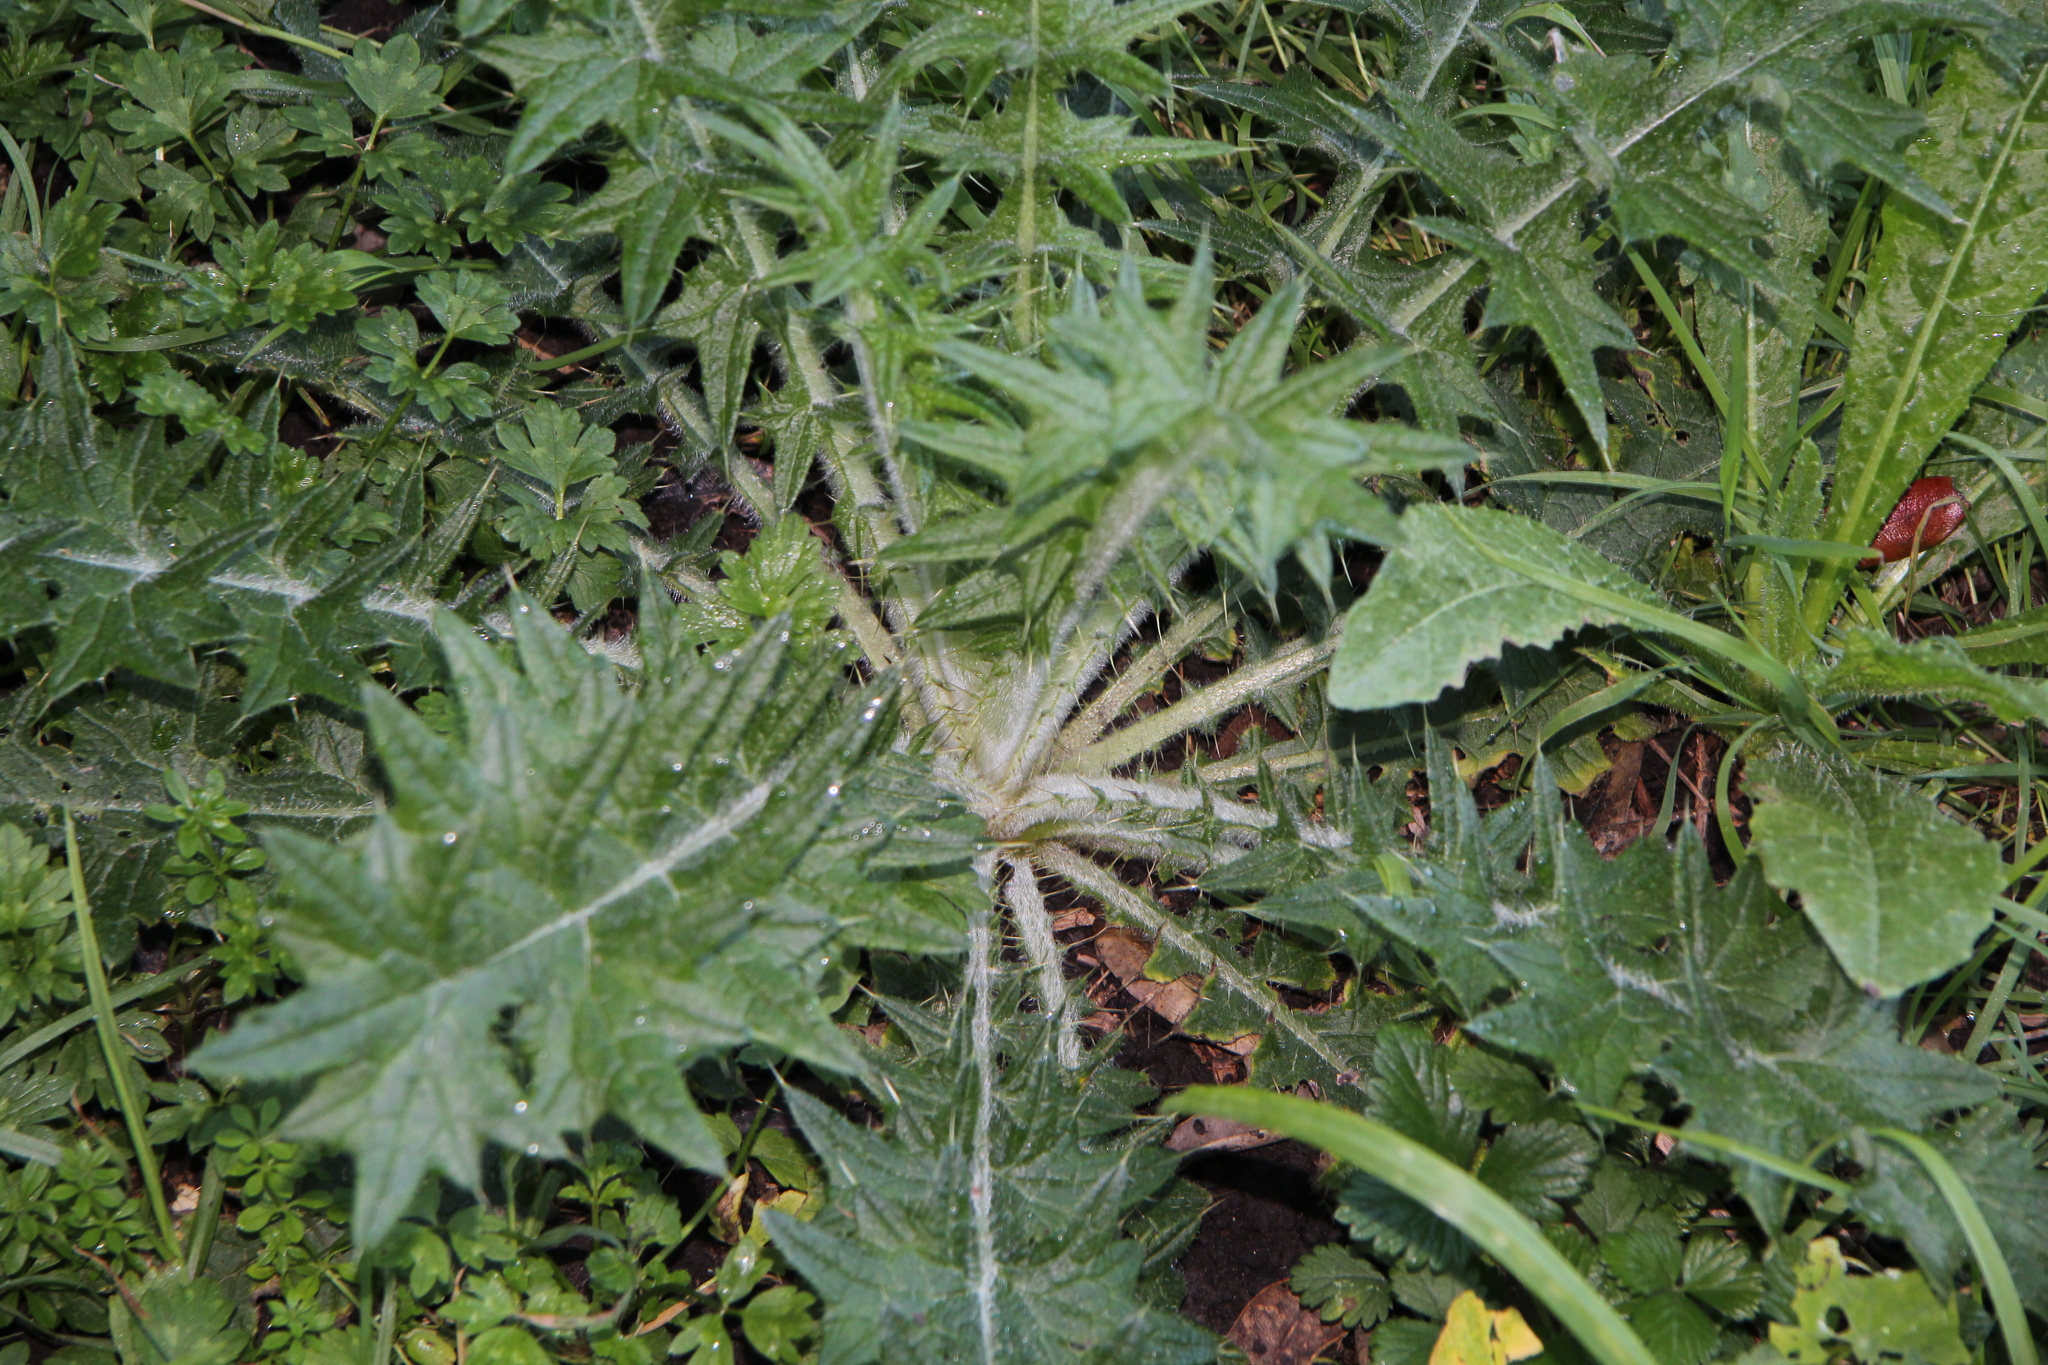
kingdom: Plantae
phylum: Tracheophyta
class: Magnoliopsida
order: Asterales
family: Asteraceae
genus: Cirsium
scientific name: Cirsium vulgare
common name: Bull thistle
